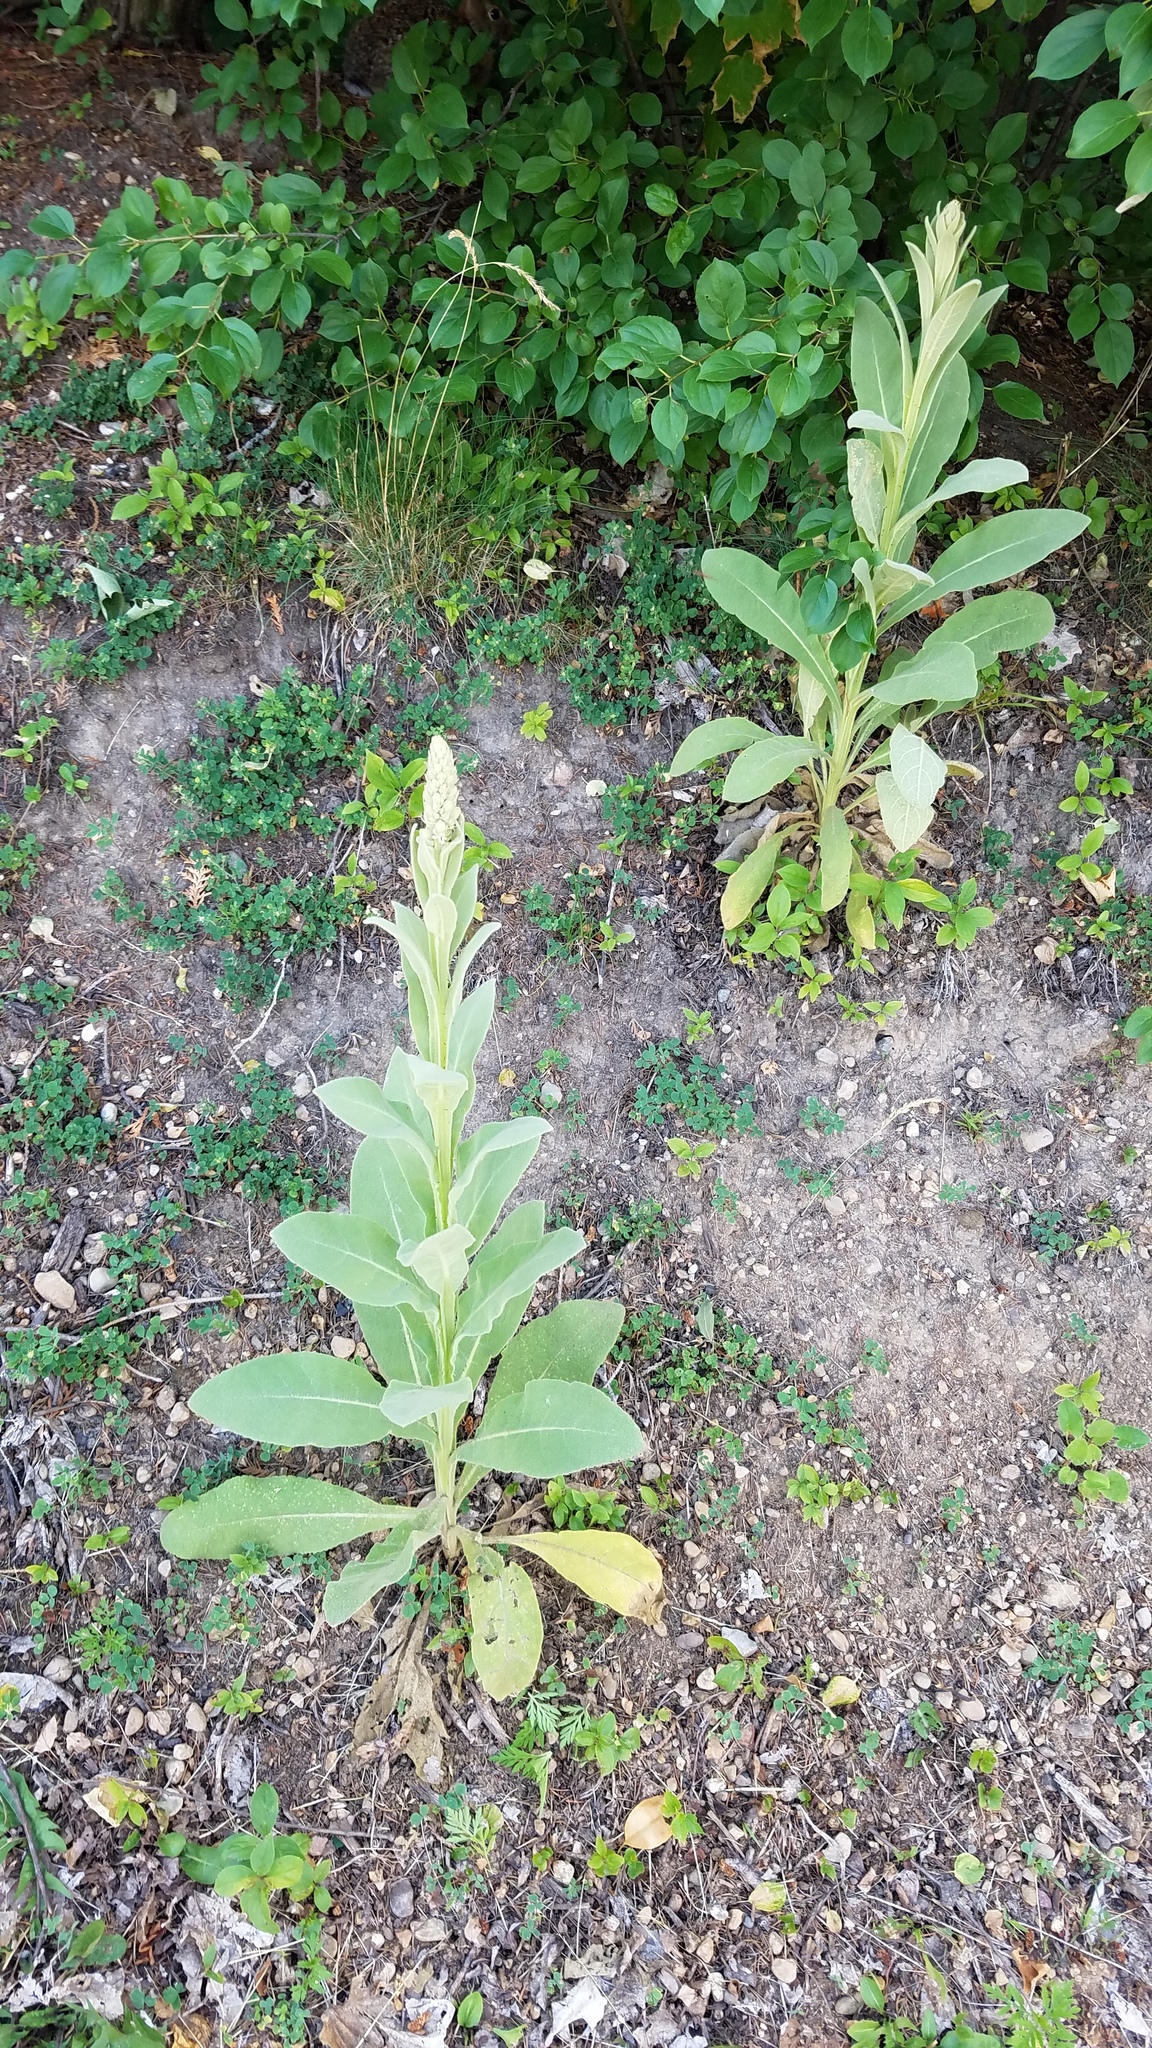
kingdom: Plantae
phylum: Tracheophyta
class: Magnoliopsida
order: Lamiales
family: Scrophulariaceae
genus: Verbascum
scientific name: Verbascum thapsus
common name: Common mullein
